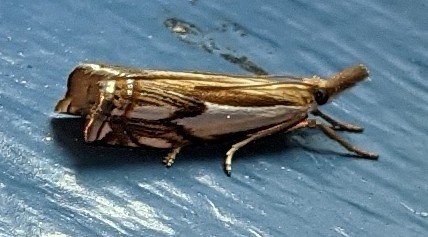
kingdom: Animalia
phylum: Arthropoda
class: Insecta
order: Lepidoptera
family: Crambidae
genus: Crambus
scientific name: Crambus agitatellus
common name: Double-banded grass-veneer
